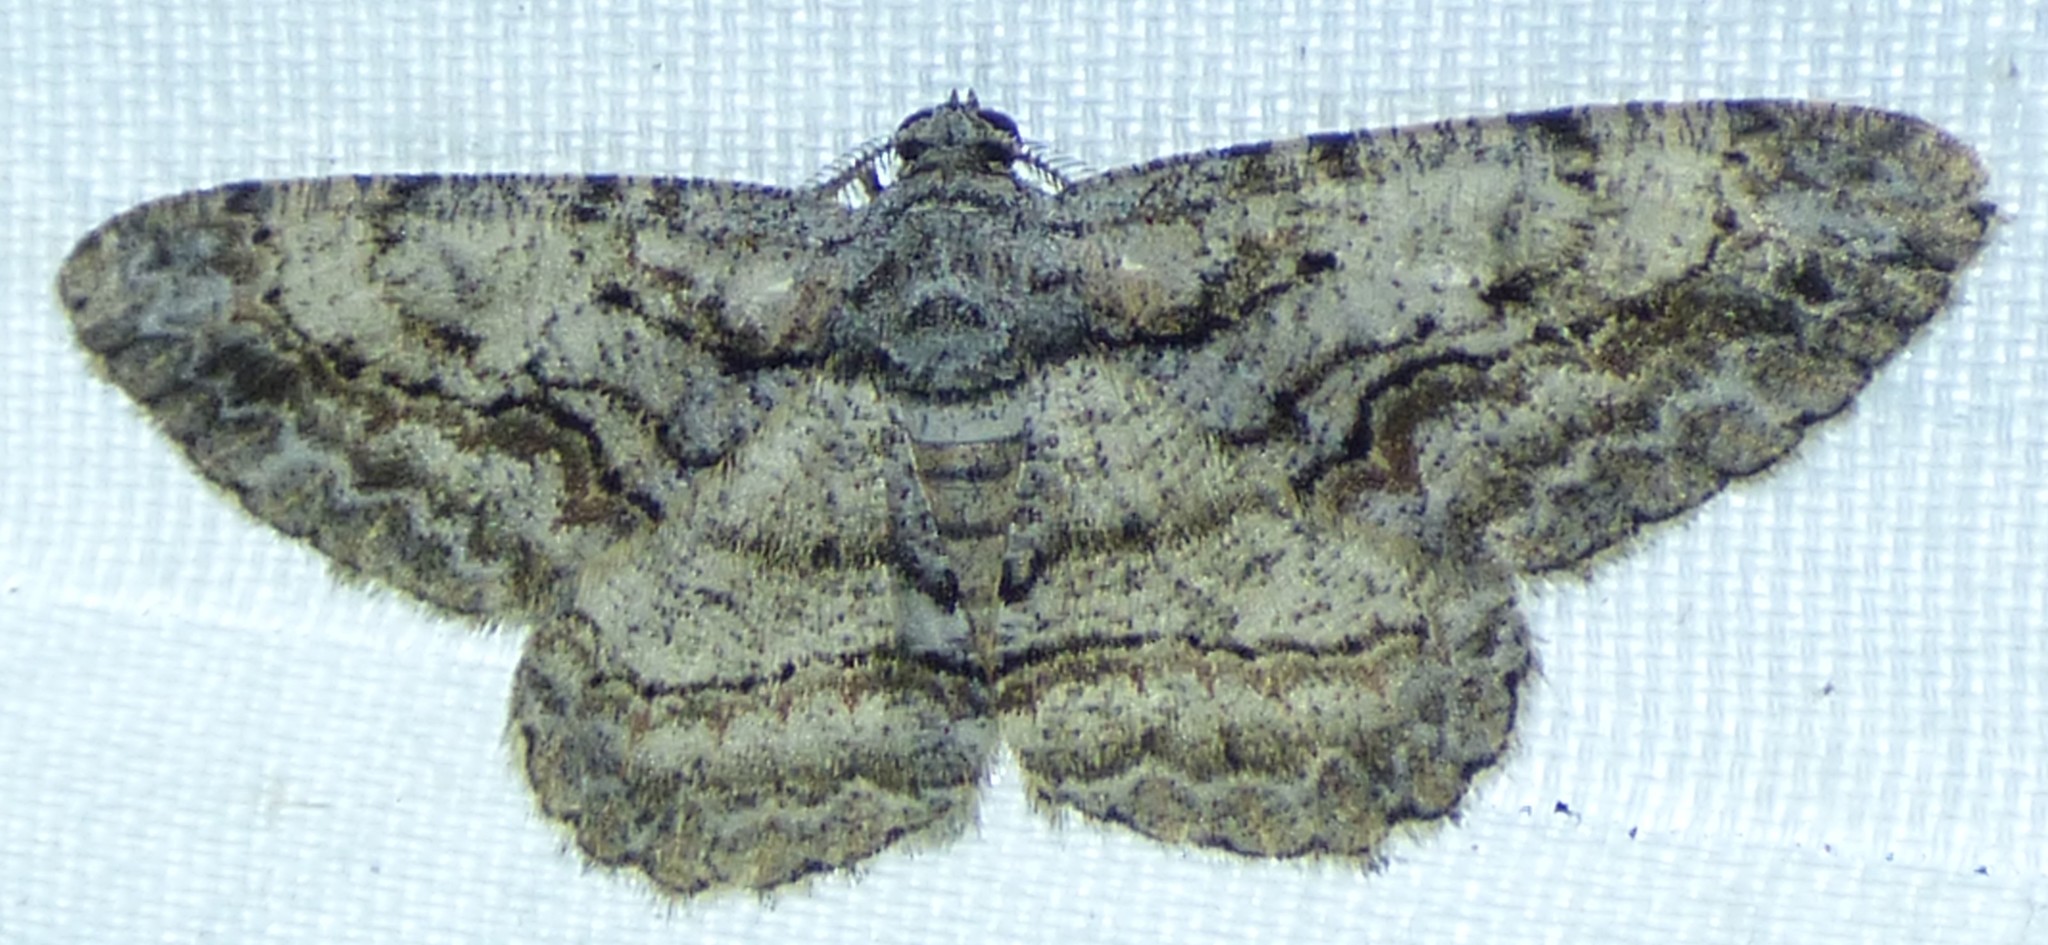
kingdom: Animalia
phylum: Arthropoda
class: Insecta
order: Lepidoptera
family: Geometridae
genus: Anavitrinella
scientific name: Anavitrinella pampinaria
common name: Common gray
